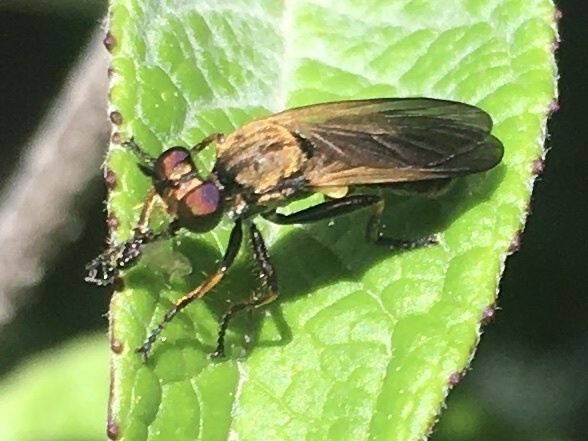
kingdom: Animalia
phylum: Arthropoda
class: Insecta
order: Diptera
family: Asilidae
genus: Eudioctria
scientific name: Eudioctria sackeni
